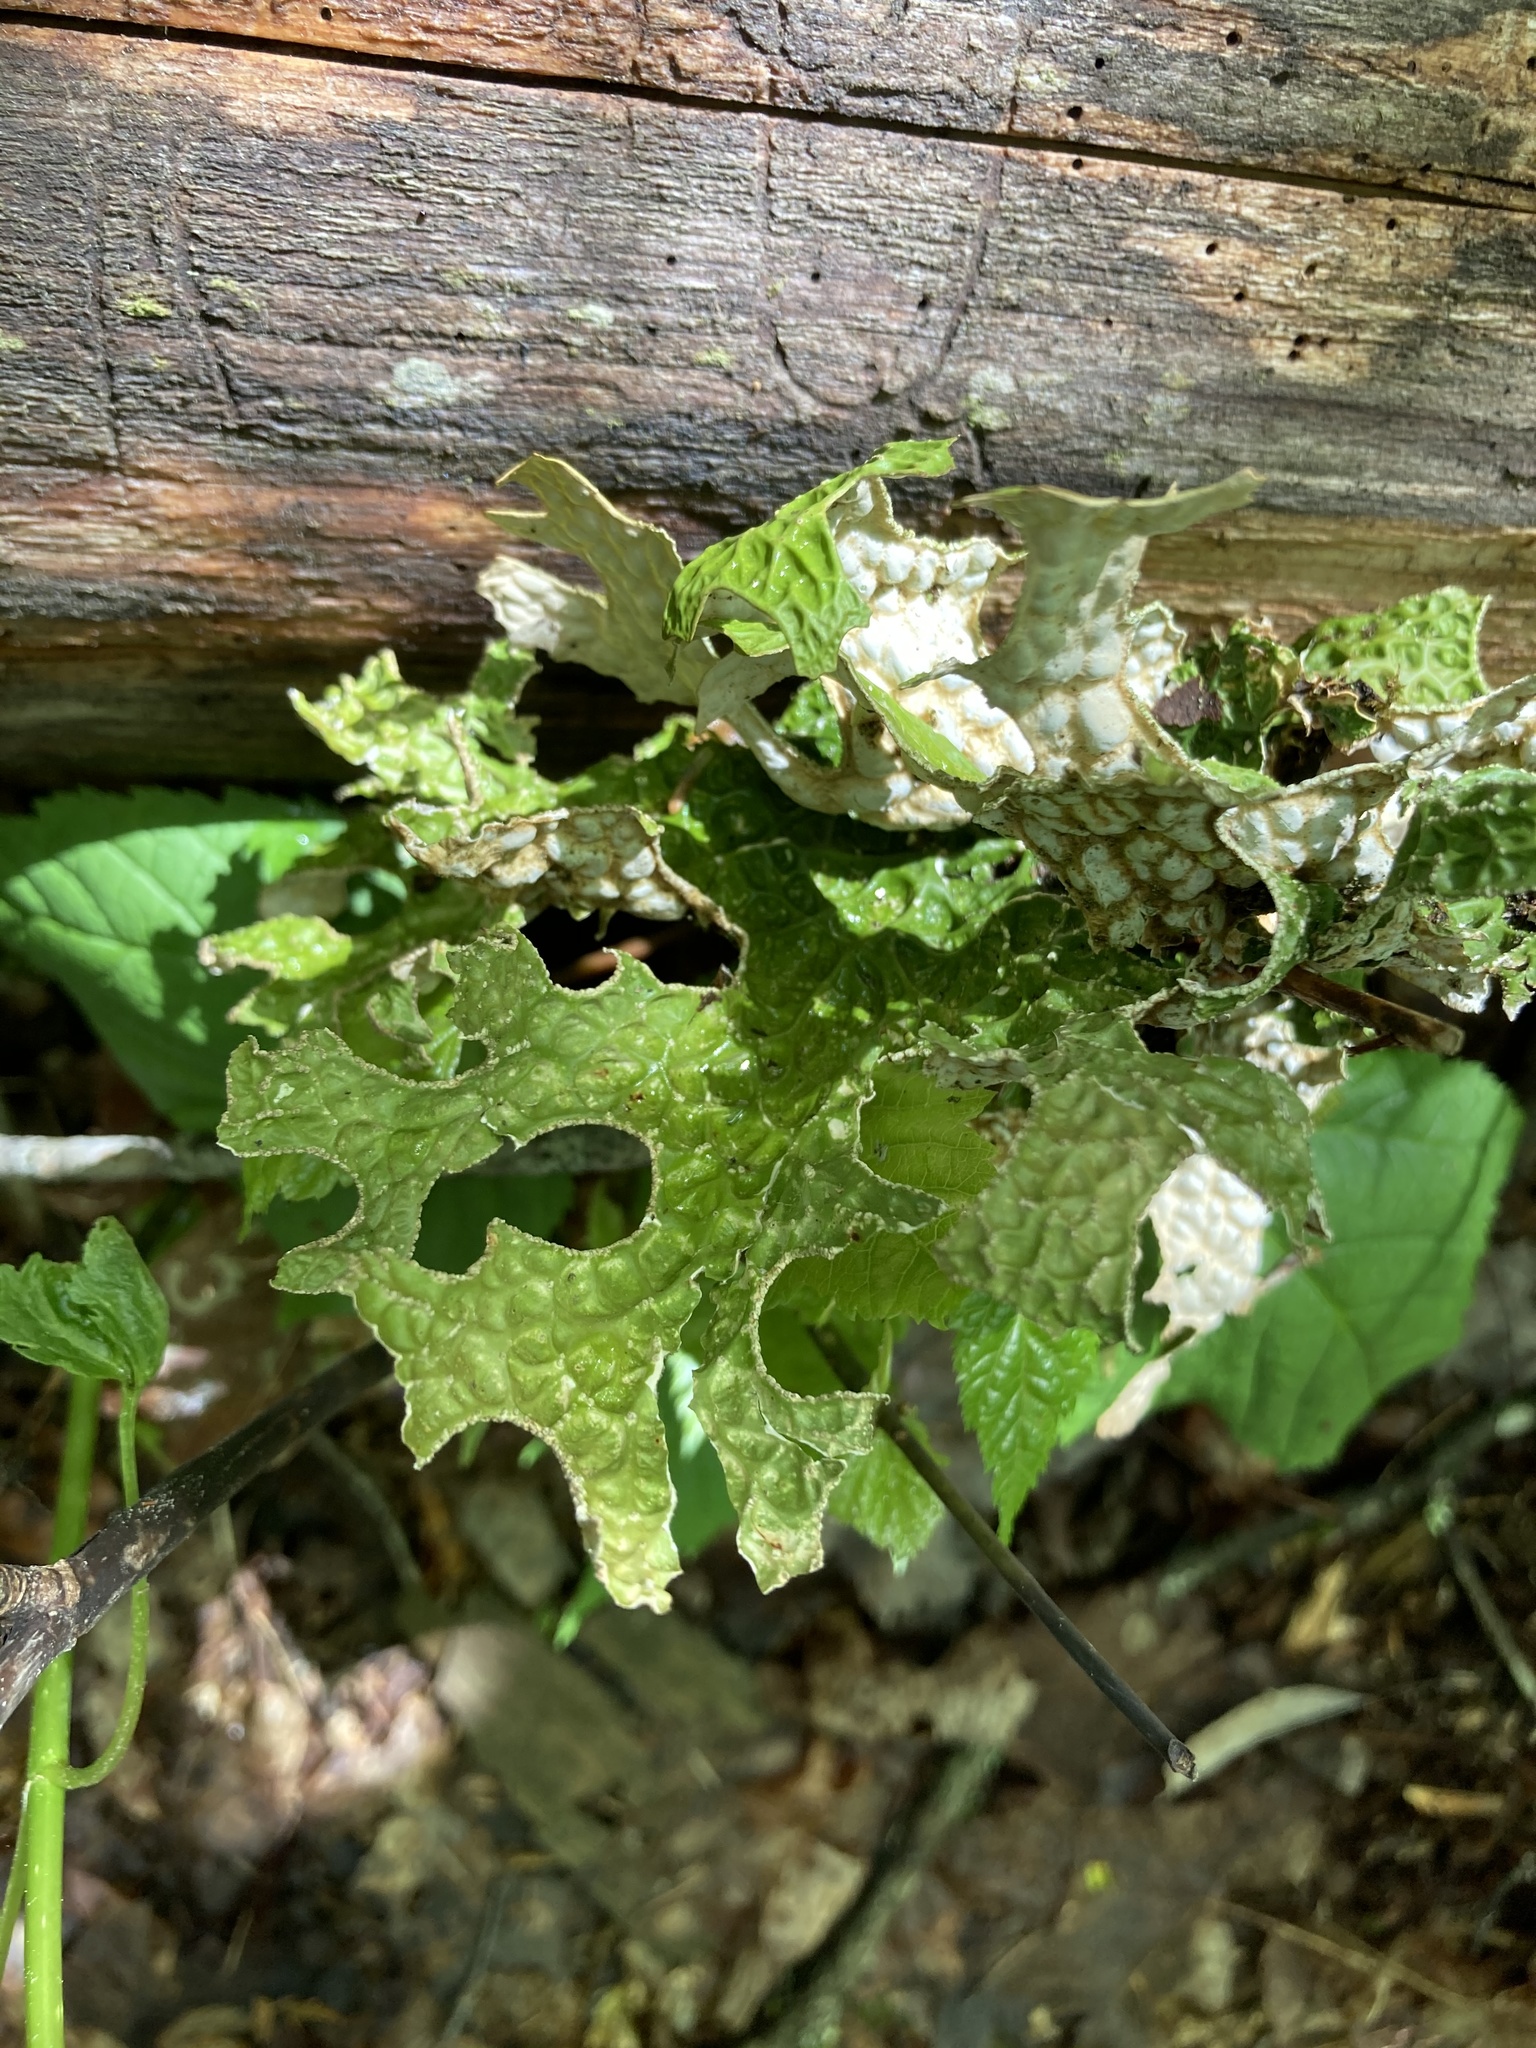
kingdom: Fungi
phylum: Ascomycota
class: Lecanoromycetes
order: Peltigerales
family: Lobariaceae
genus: Lobaria
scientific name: Lobaria pulmonaria
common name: Lungwort
